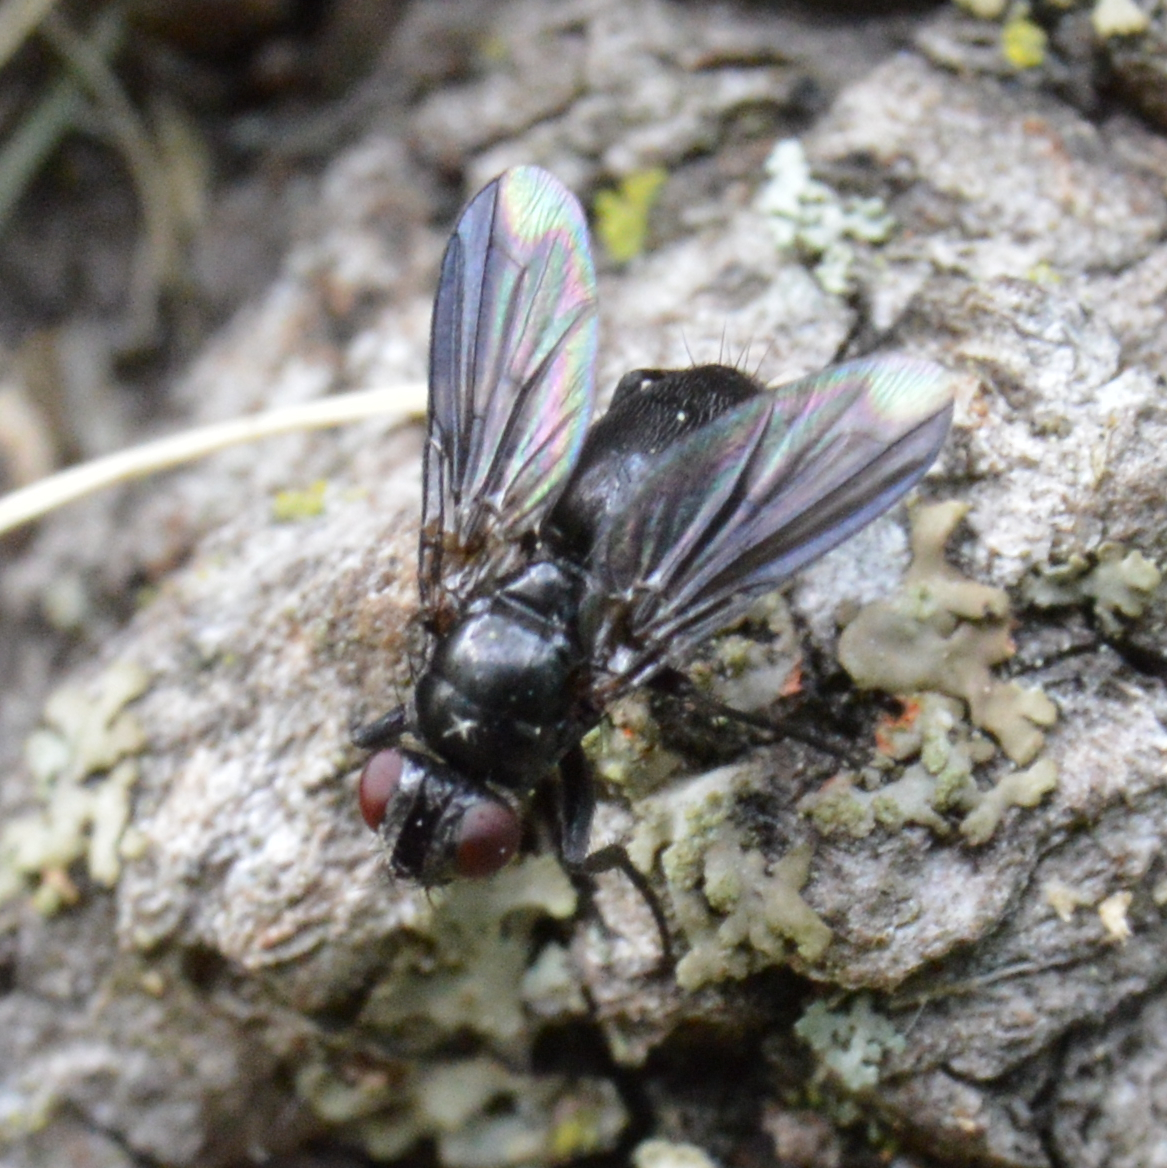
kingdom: Animalia
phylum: Arthropoda
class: Insecta
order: Diptera
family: Calliphoridae
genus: Melanophora
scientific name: Melanophora roralis
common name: Smoky-winged woodlouse-fly
